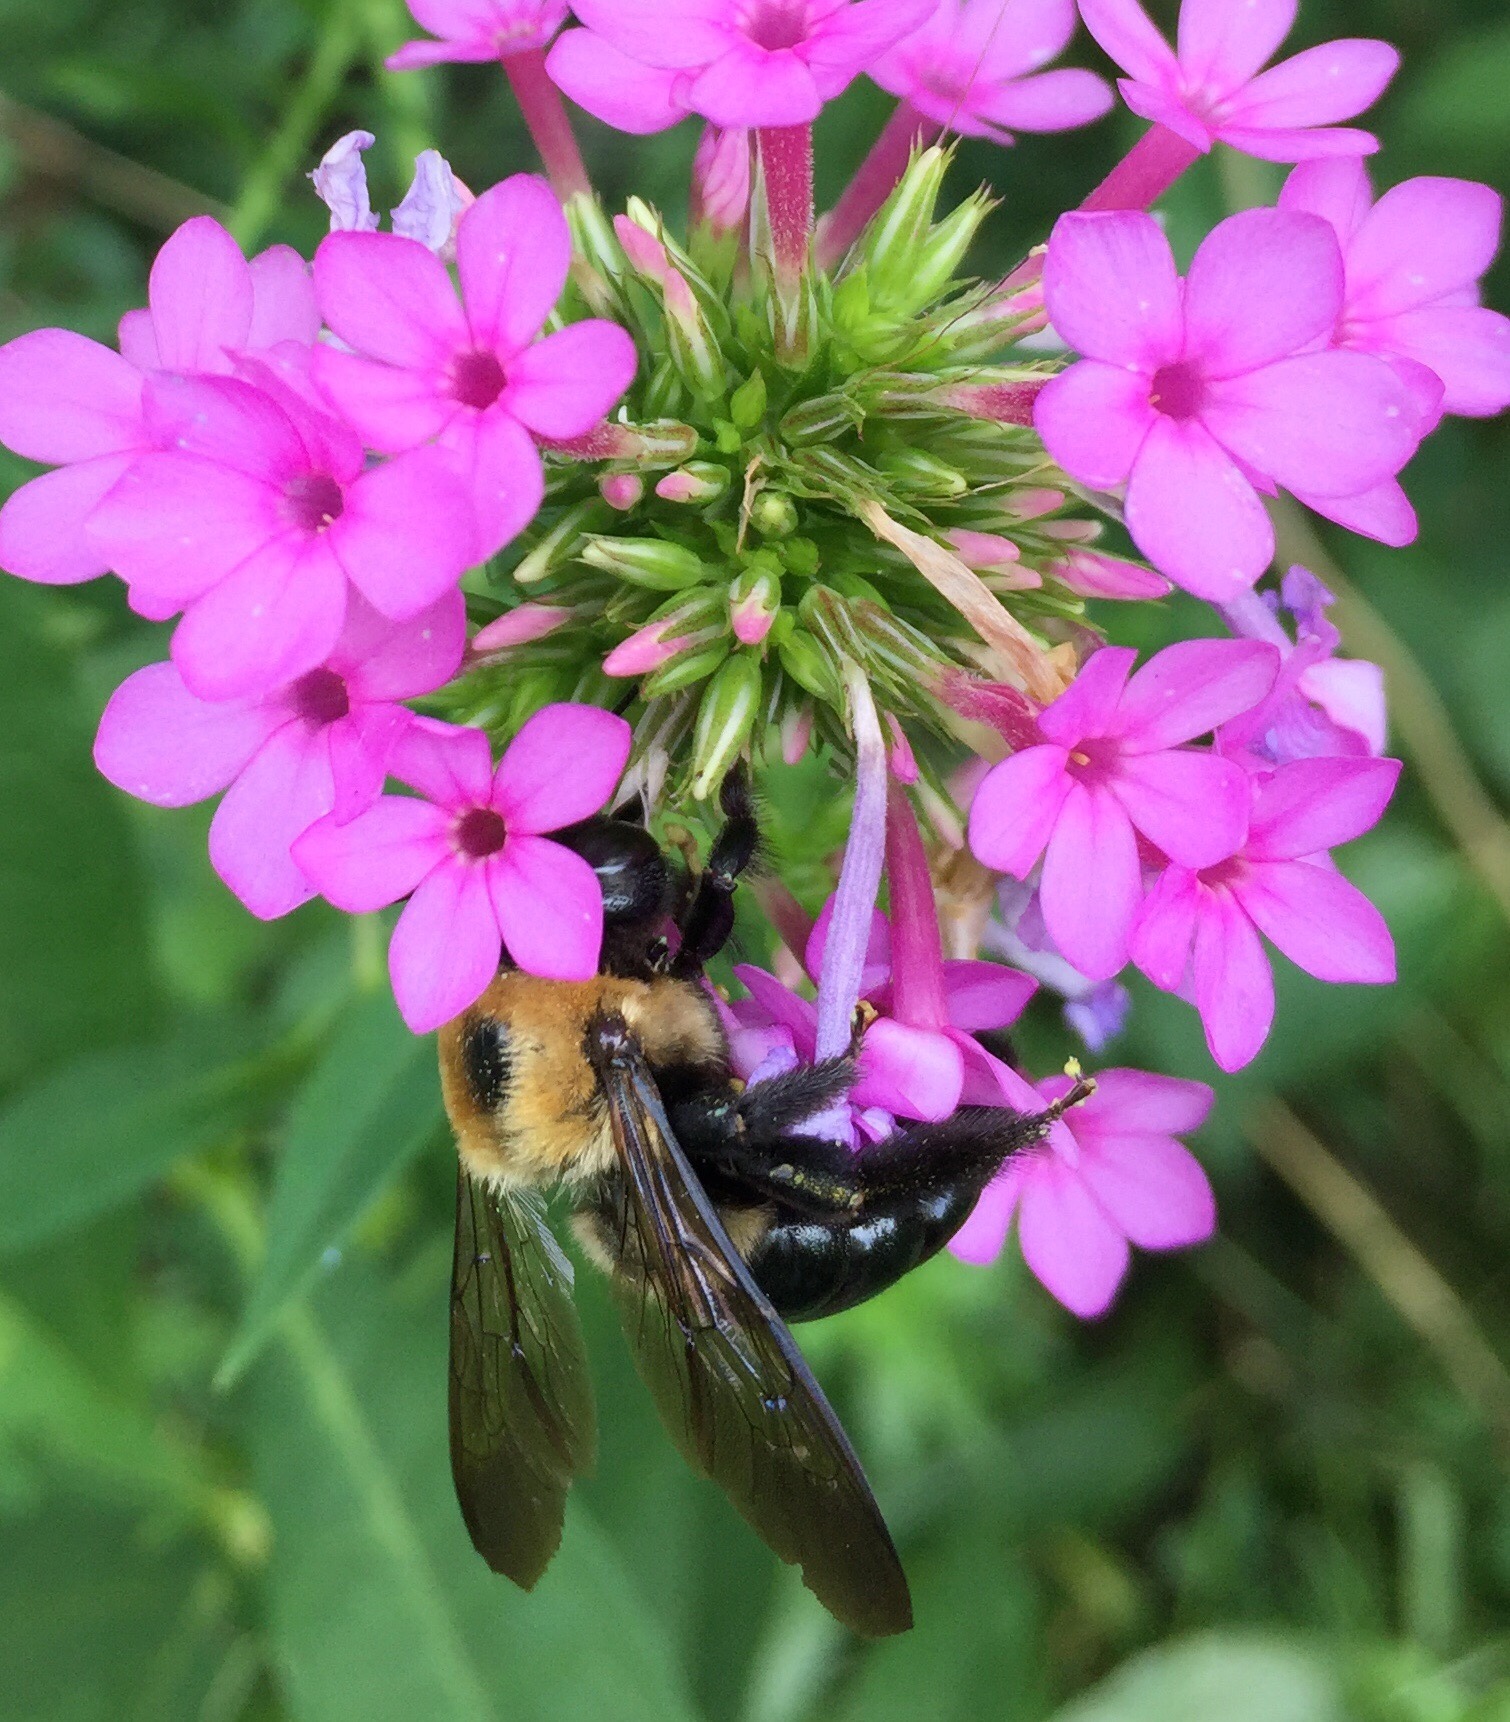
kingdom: Animalia
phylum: Arthropoda
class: Insecta
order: Hymenoptera
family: Apidae
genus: Xylocopa
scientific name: Xylocopa virginica
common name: Carpenter bee
